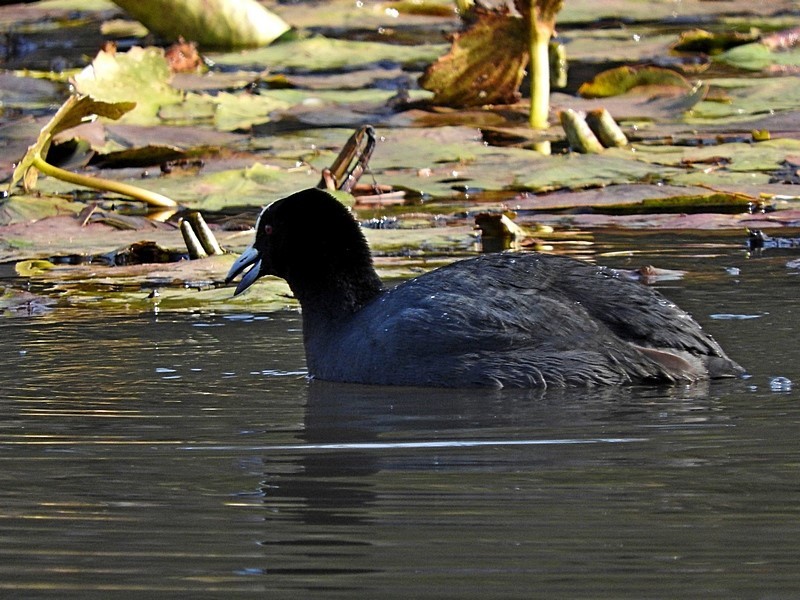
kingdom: Animalia
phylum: Chordata
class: Aves
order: Gruiformes
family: Rallidae
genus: Fulica
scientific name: Fulica atra
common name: Eurasian coot
